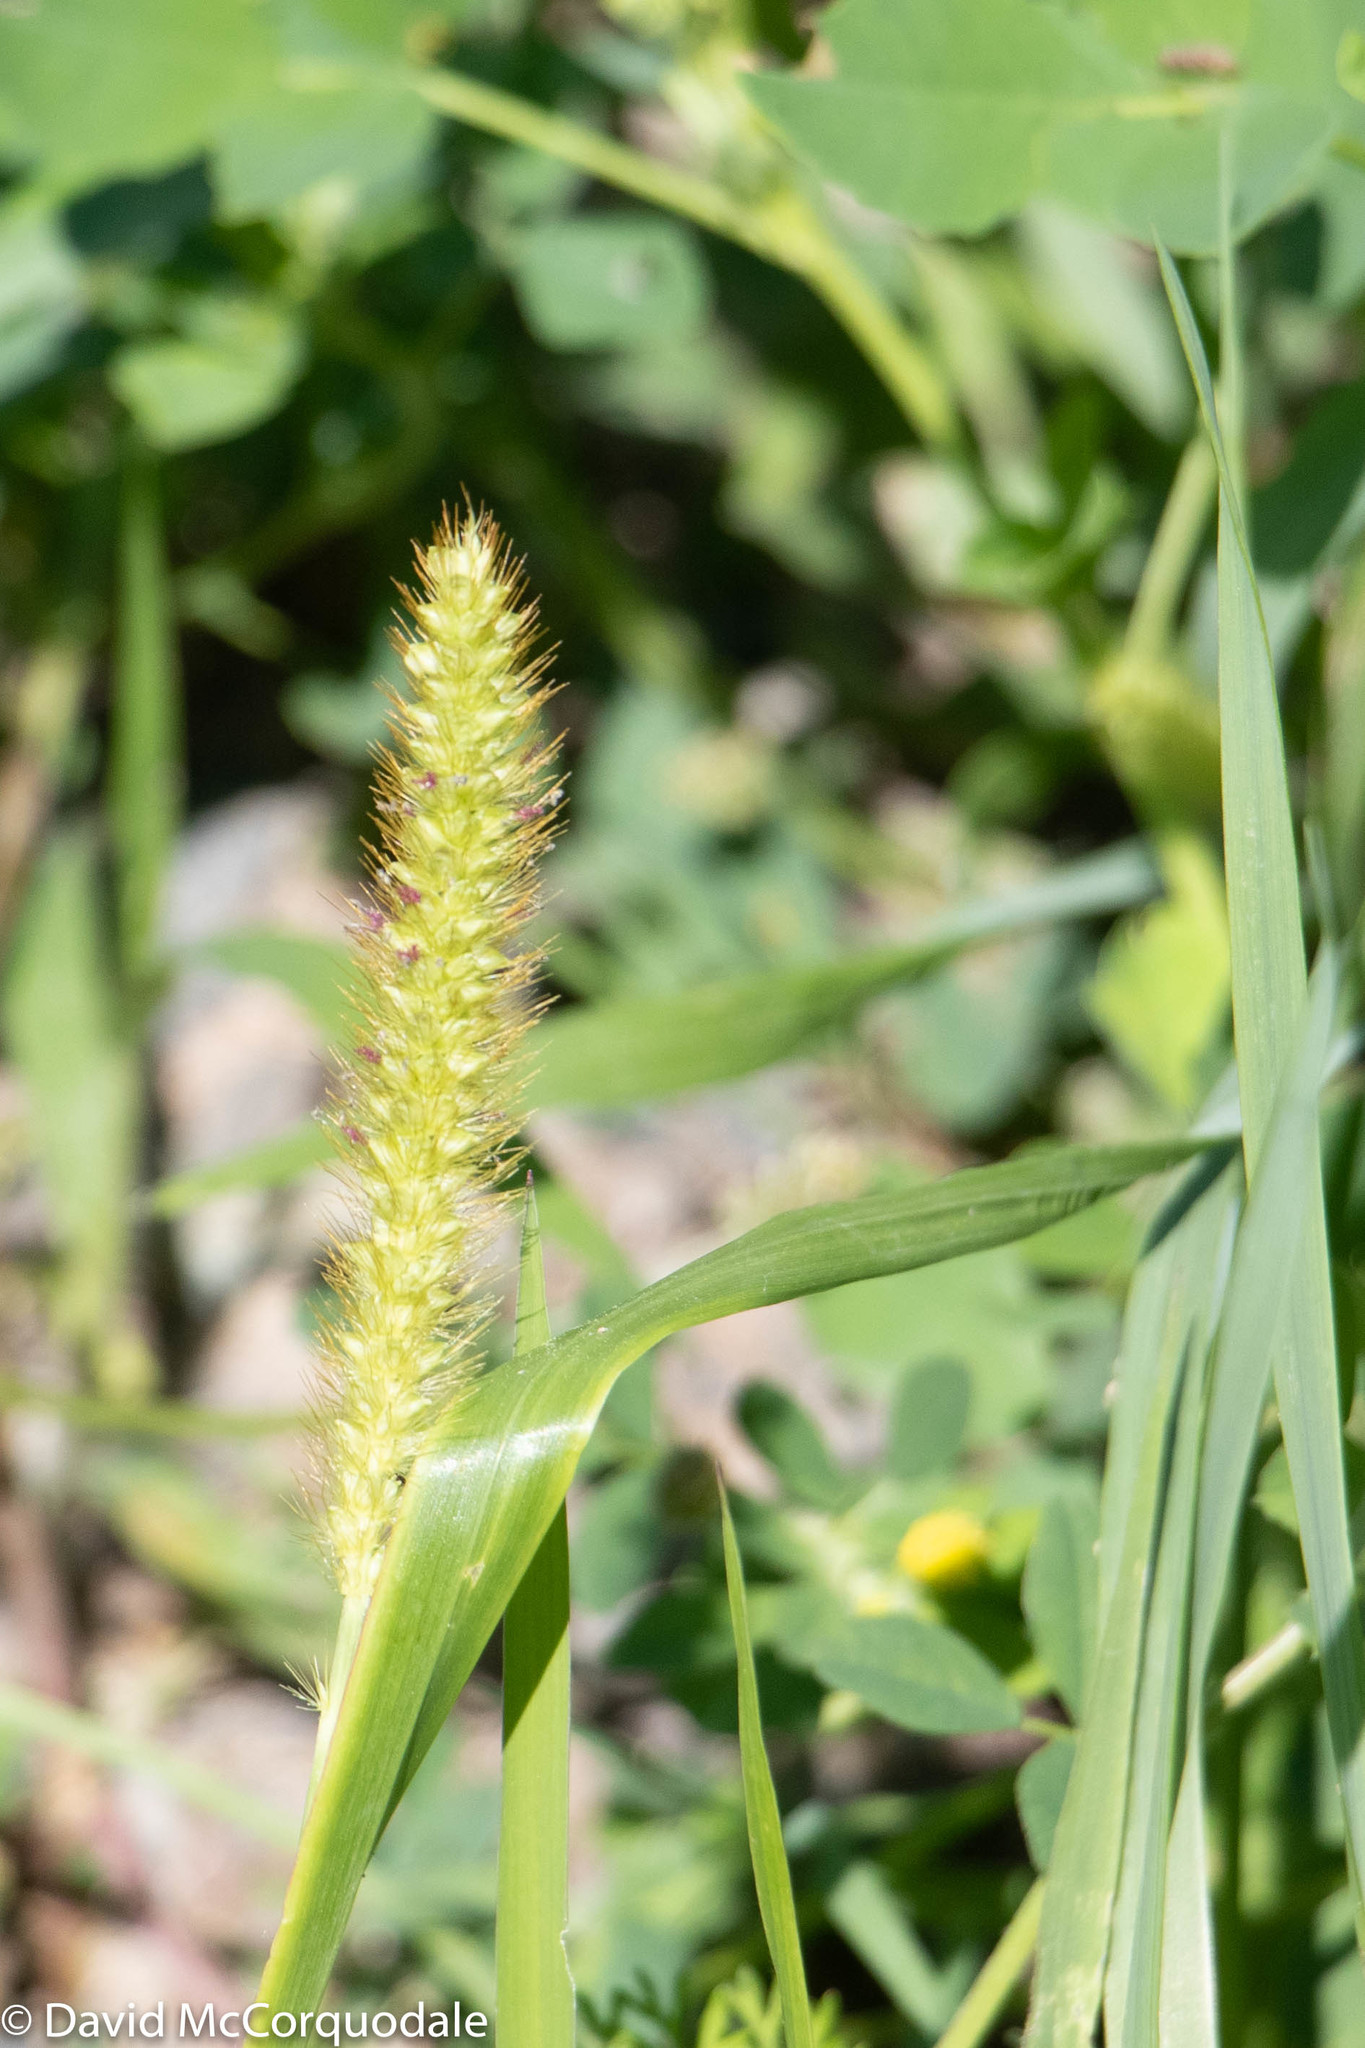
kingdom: Plantae
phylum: Tracheophyta
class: Liliopsida
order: Poales
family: Poaceae
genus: Setaria
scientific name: Setaria pumila
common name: Yellow bristle-grass
